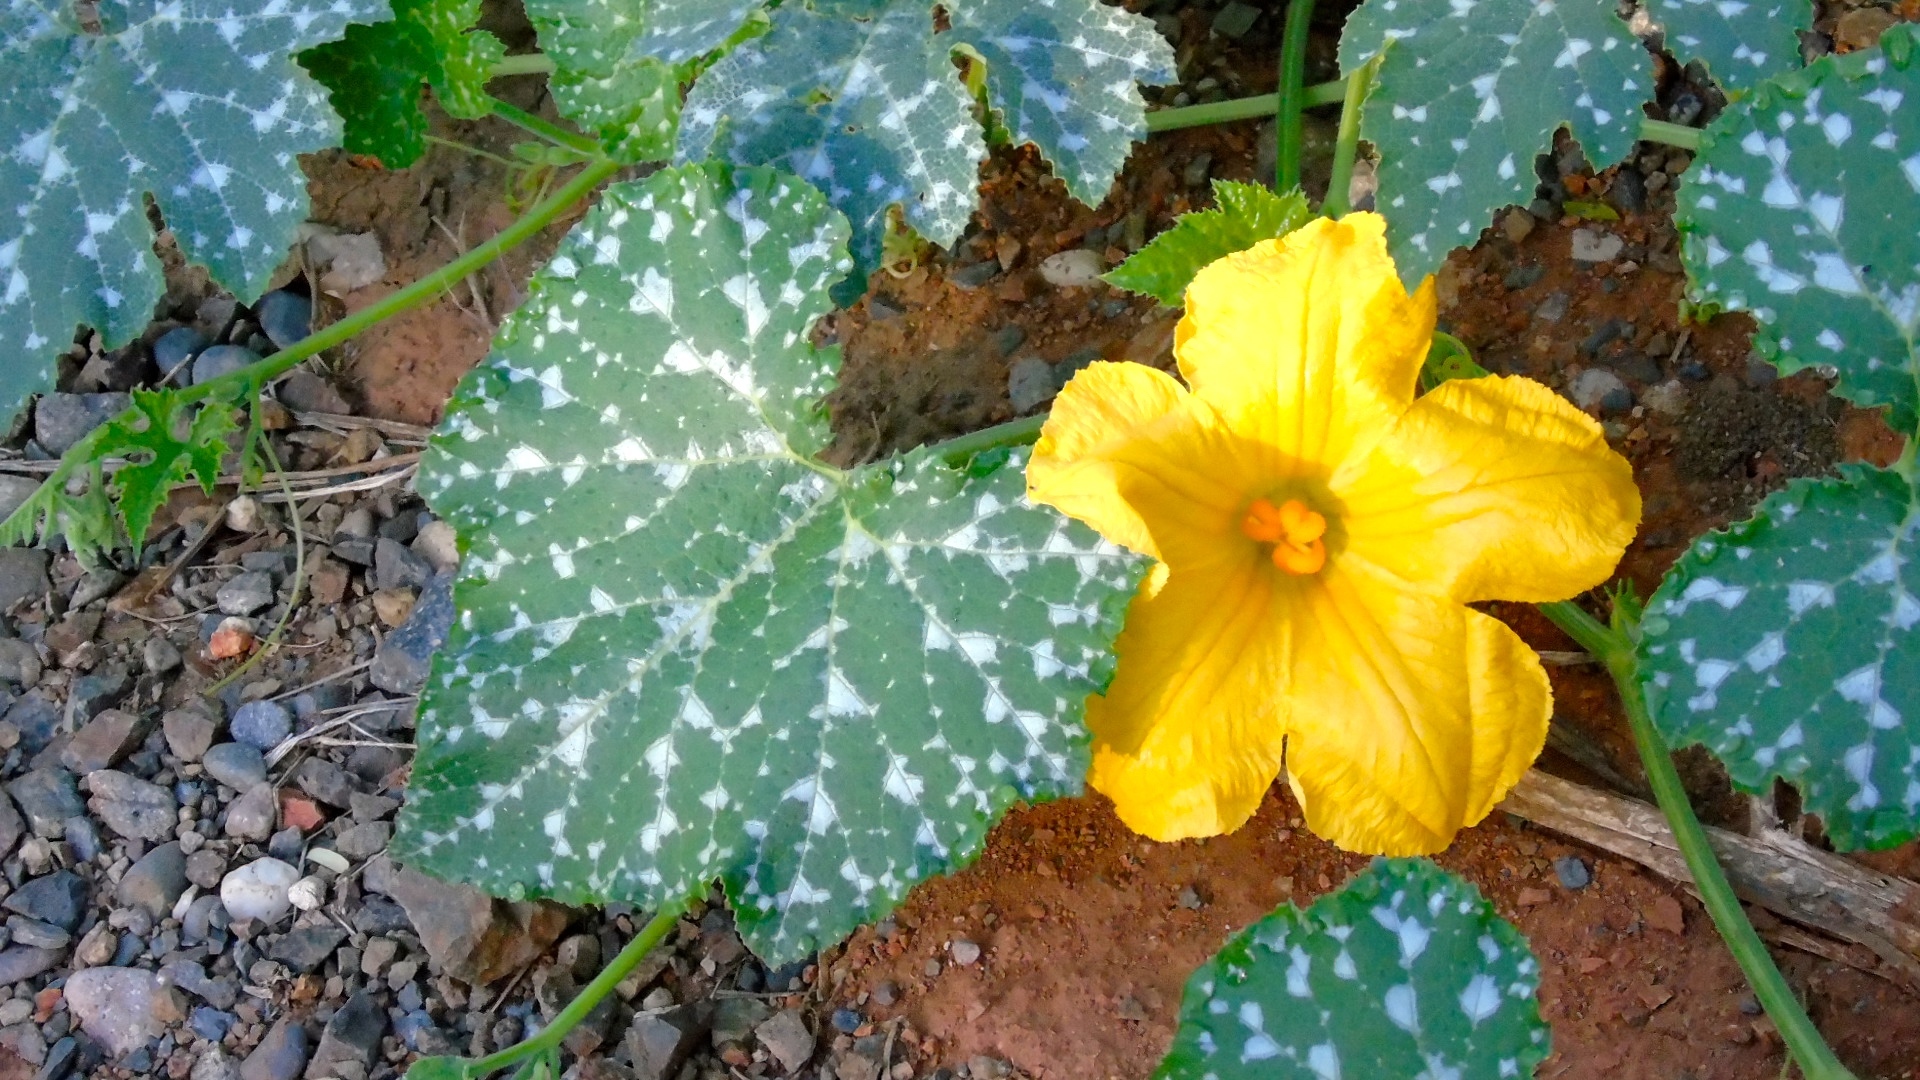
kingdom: Plantae
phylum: Tracheophyta
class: Magnoliopsida
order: Cucurbitales
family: Cucurbitaceae
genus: Cucurbita
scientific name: Cucurbita ficifolia
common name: Figleaf gourd
